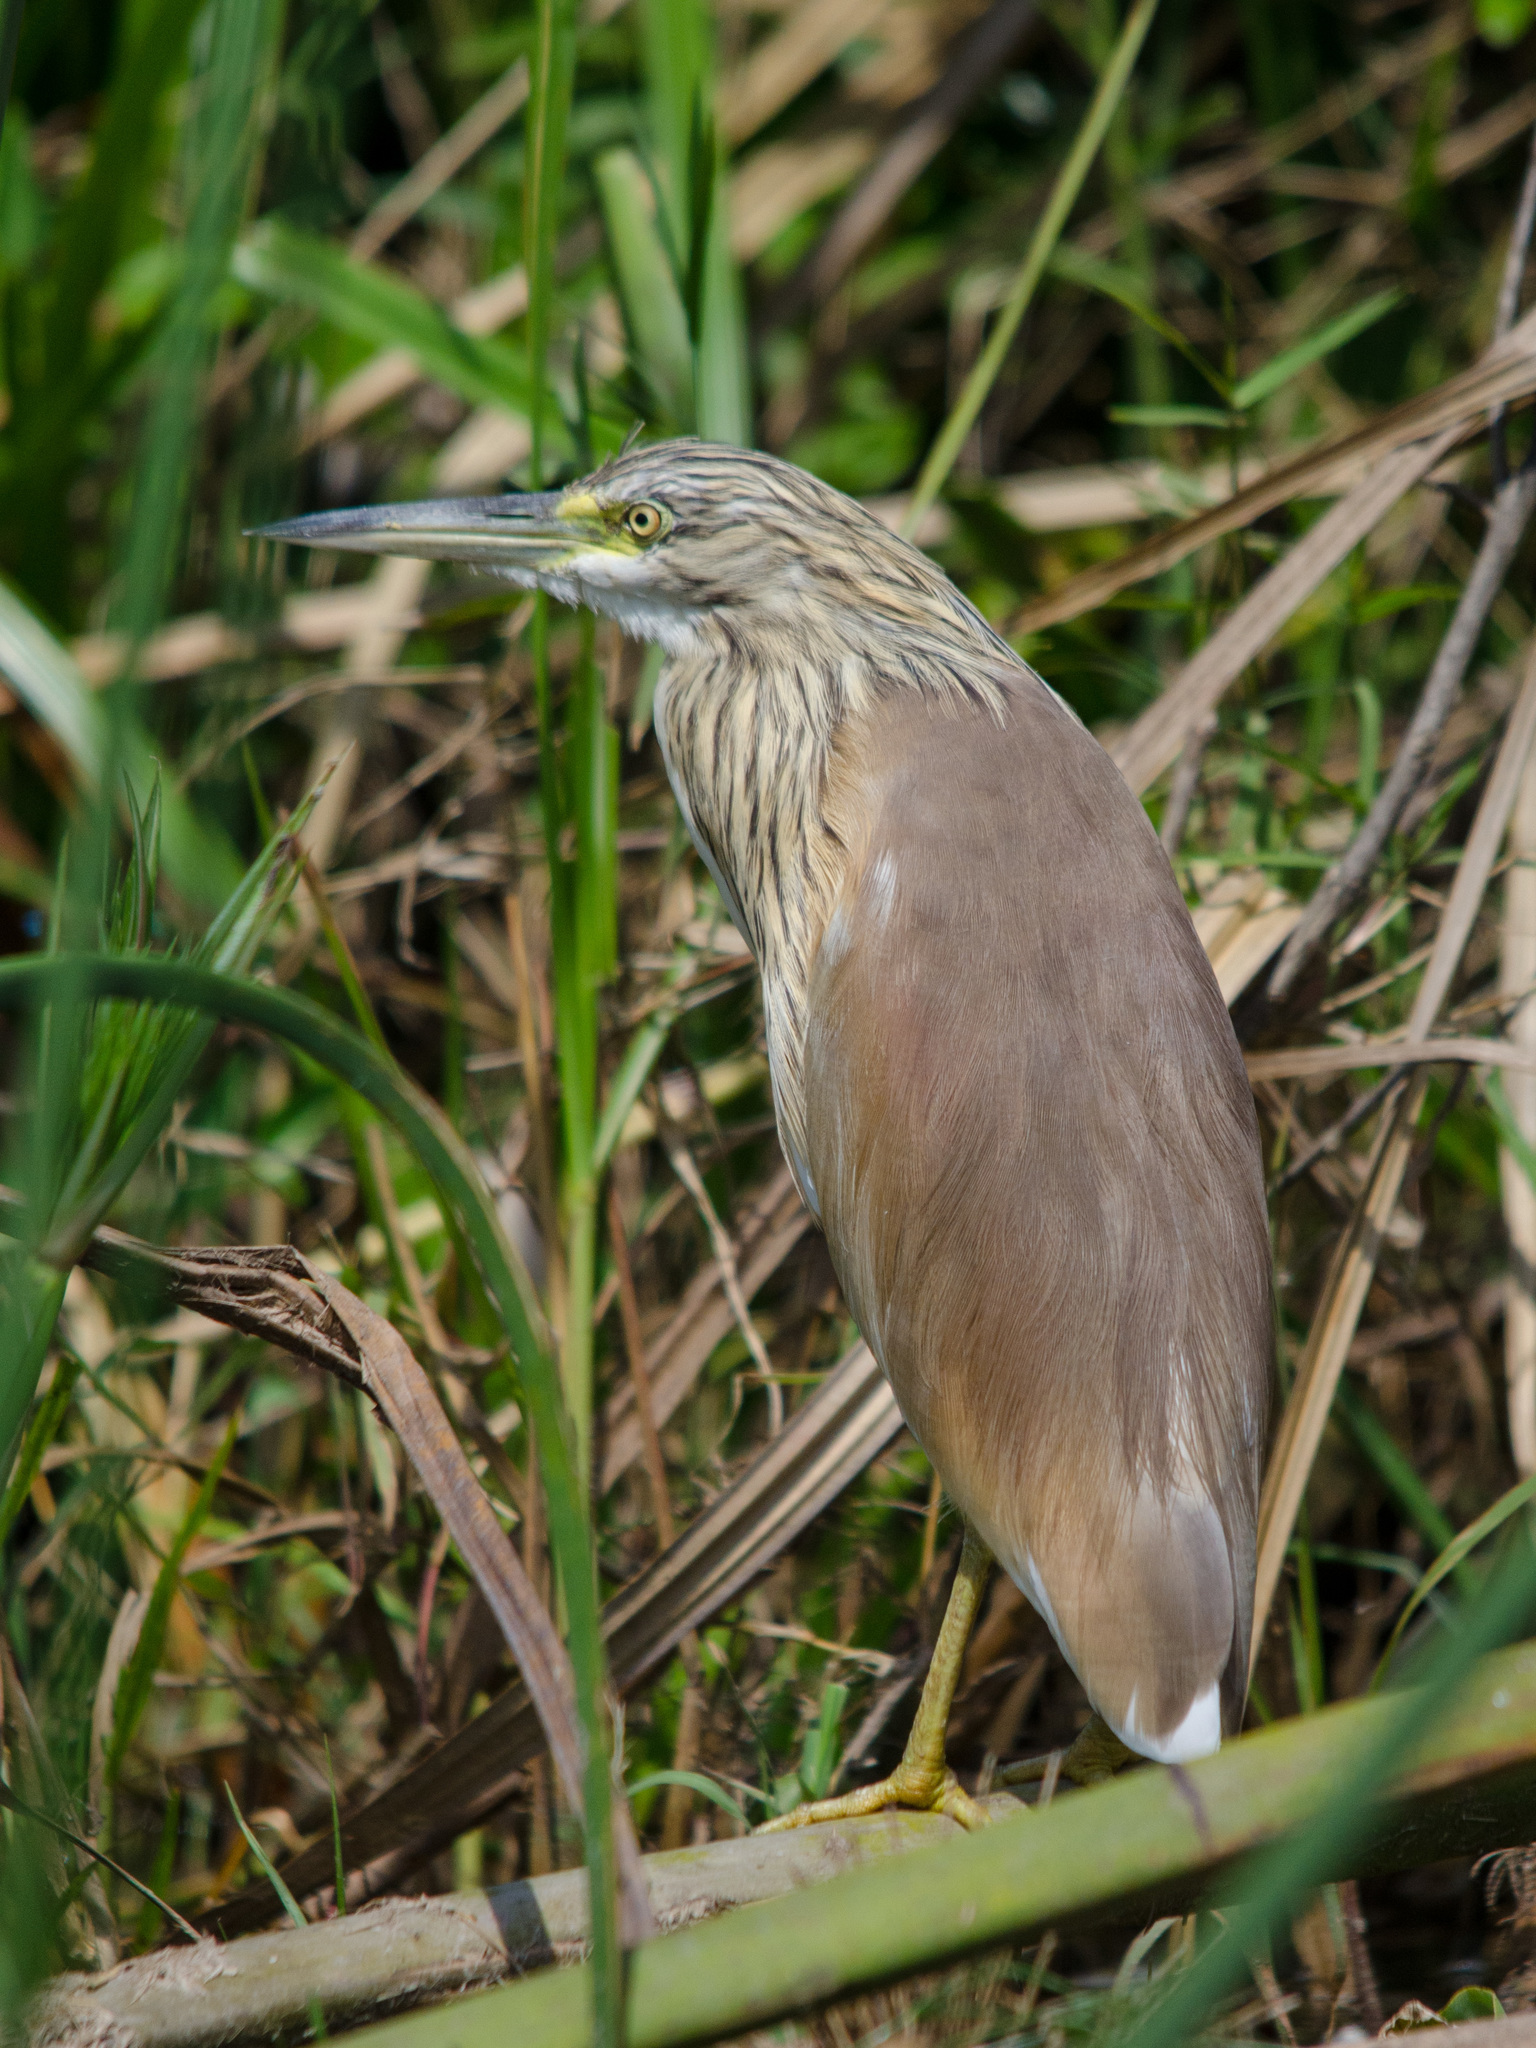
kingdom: Animalia
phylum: Chordata
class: Aves
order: Pelecaniformes
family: Ardeidae
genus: Ardeola
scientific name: Ardeola ralloides
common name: Squacco heron
